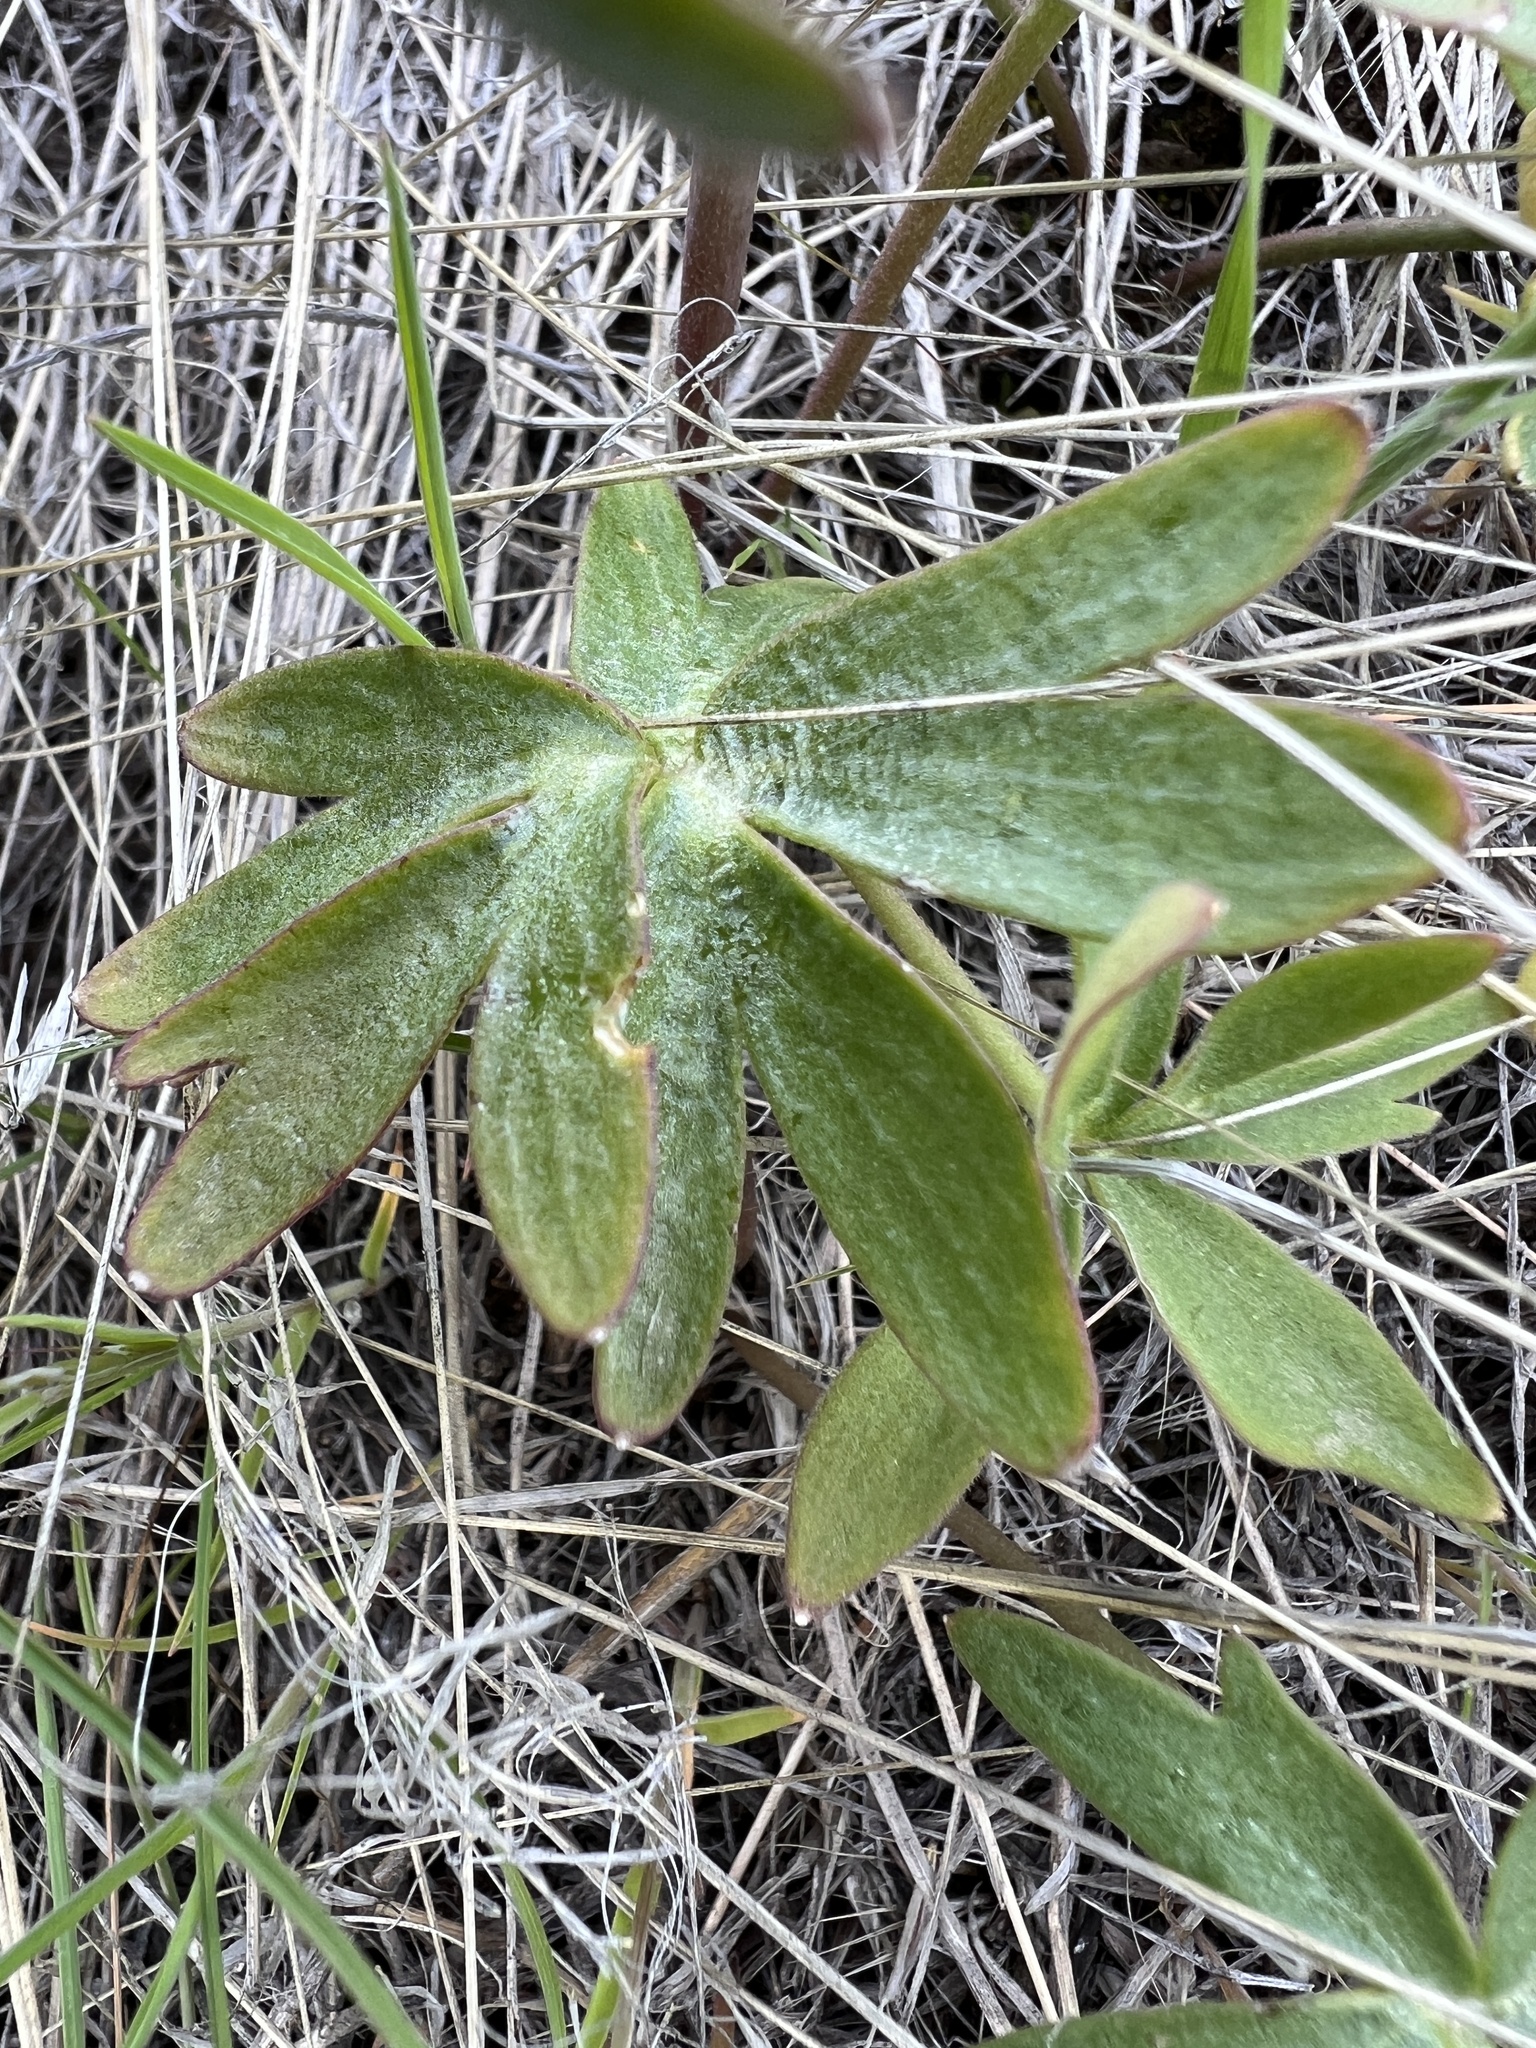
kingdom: Plantae
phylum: Tracheophyta
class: Magnoliopsida
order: Ranunculales
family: Ranunculaceae
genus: Delphinium
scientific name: Delphinium nuttallianum
